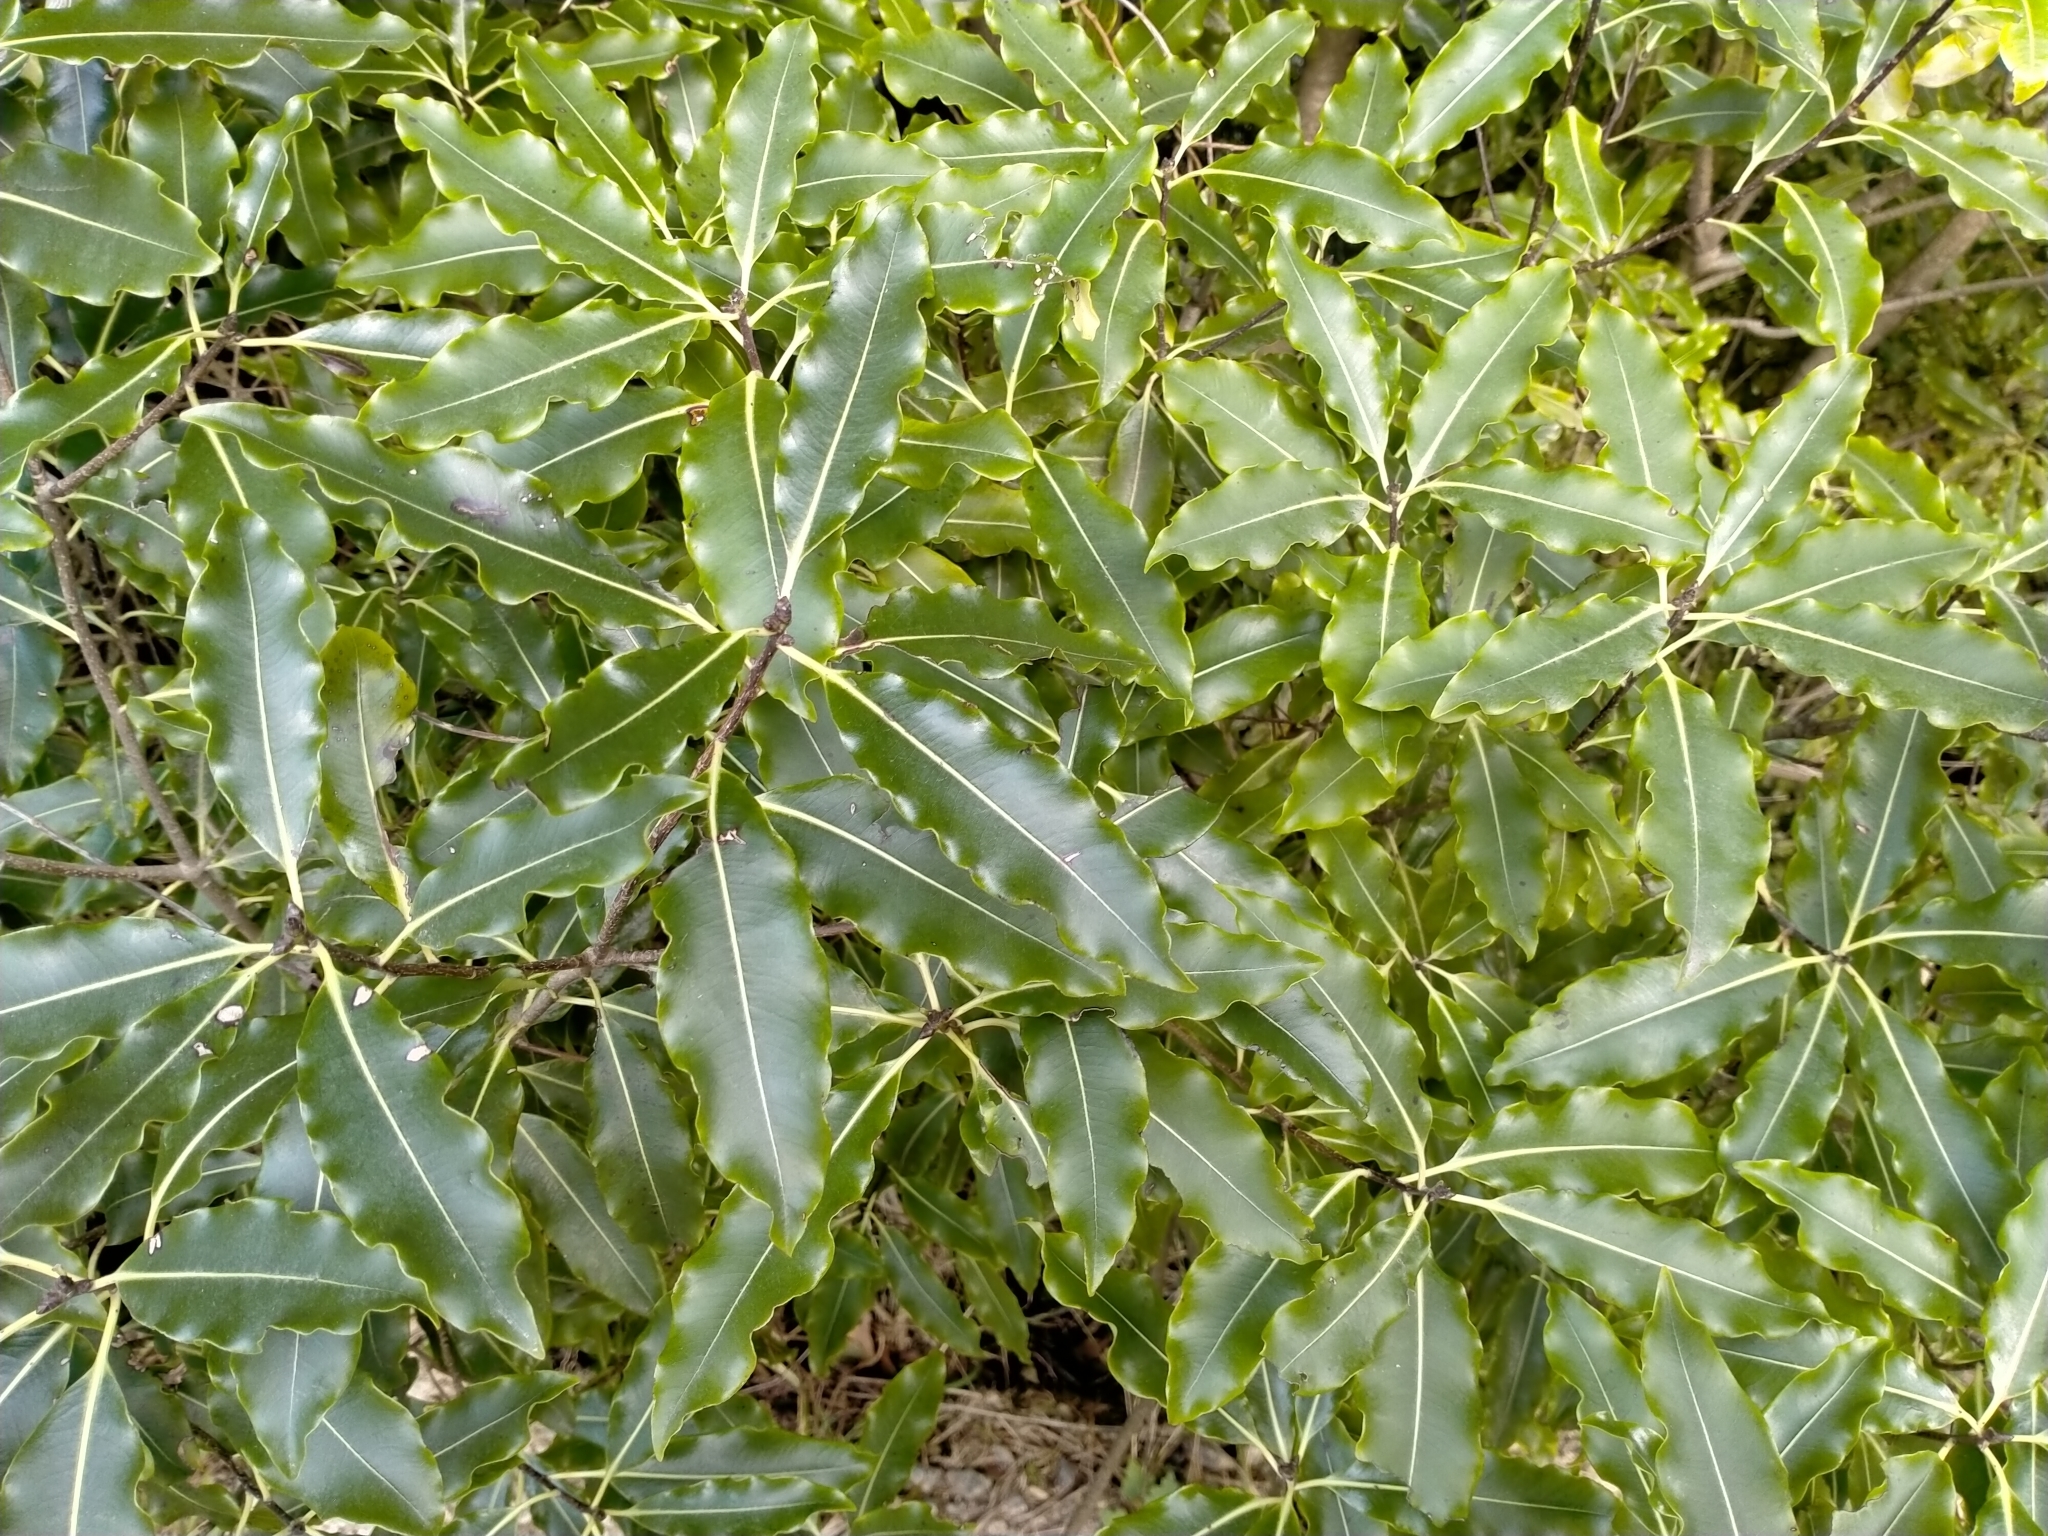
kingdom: Plantae
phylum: Tracheophyta
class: Magnoliopsida
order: Apiales
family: Pittosporaceae
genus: Pittosporum
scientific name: Pittosporum eugenioides
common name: Lemonwood
